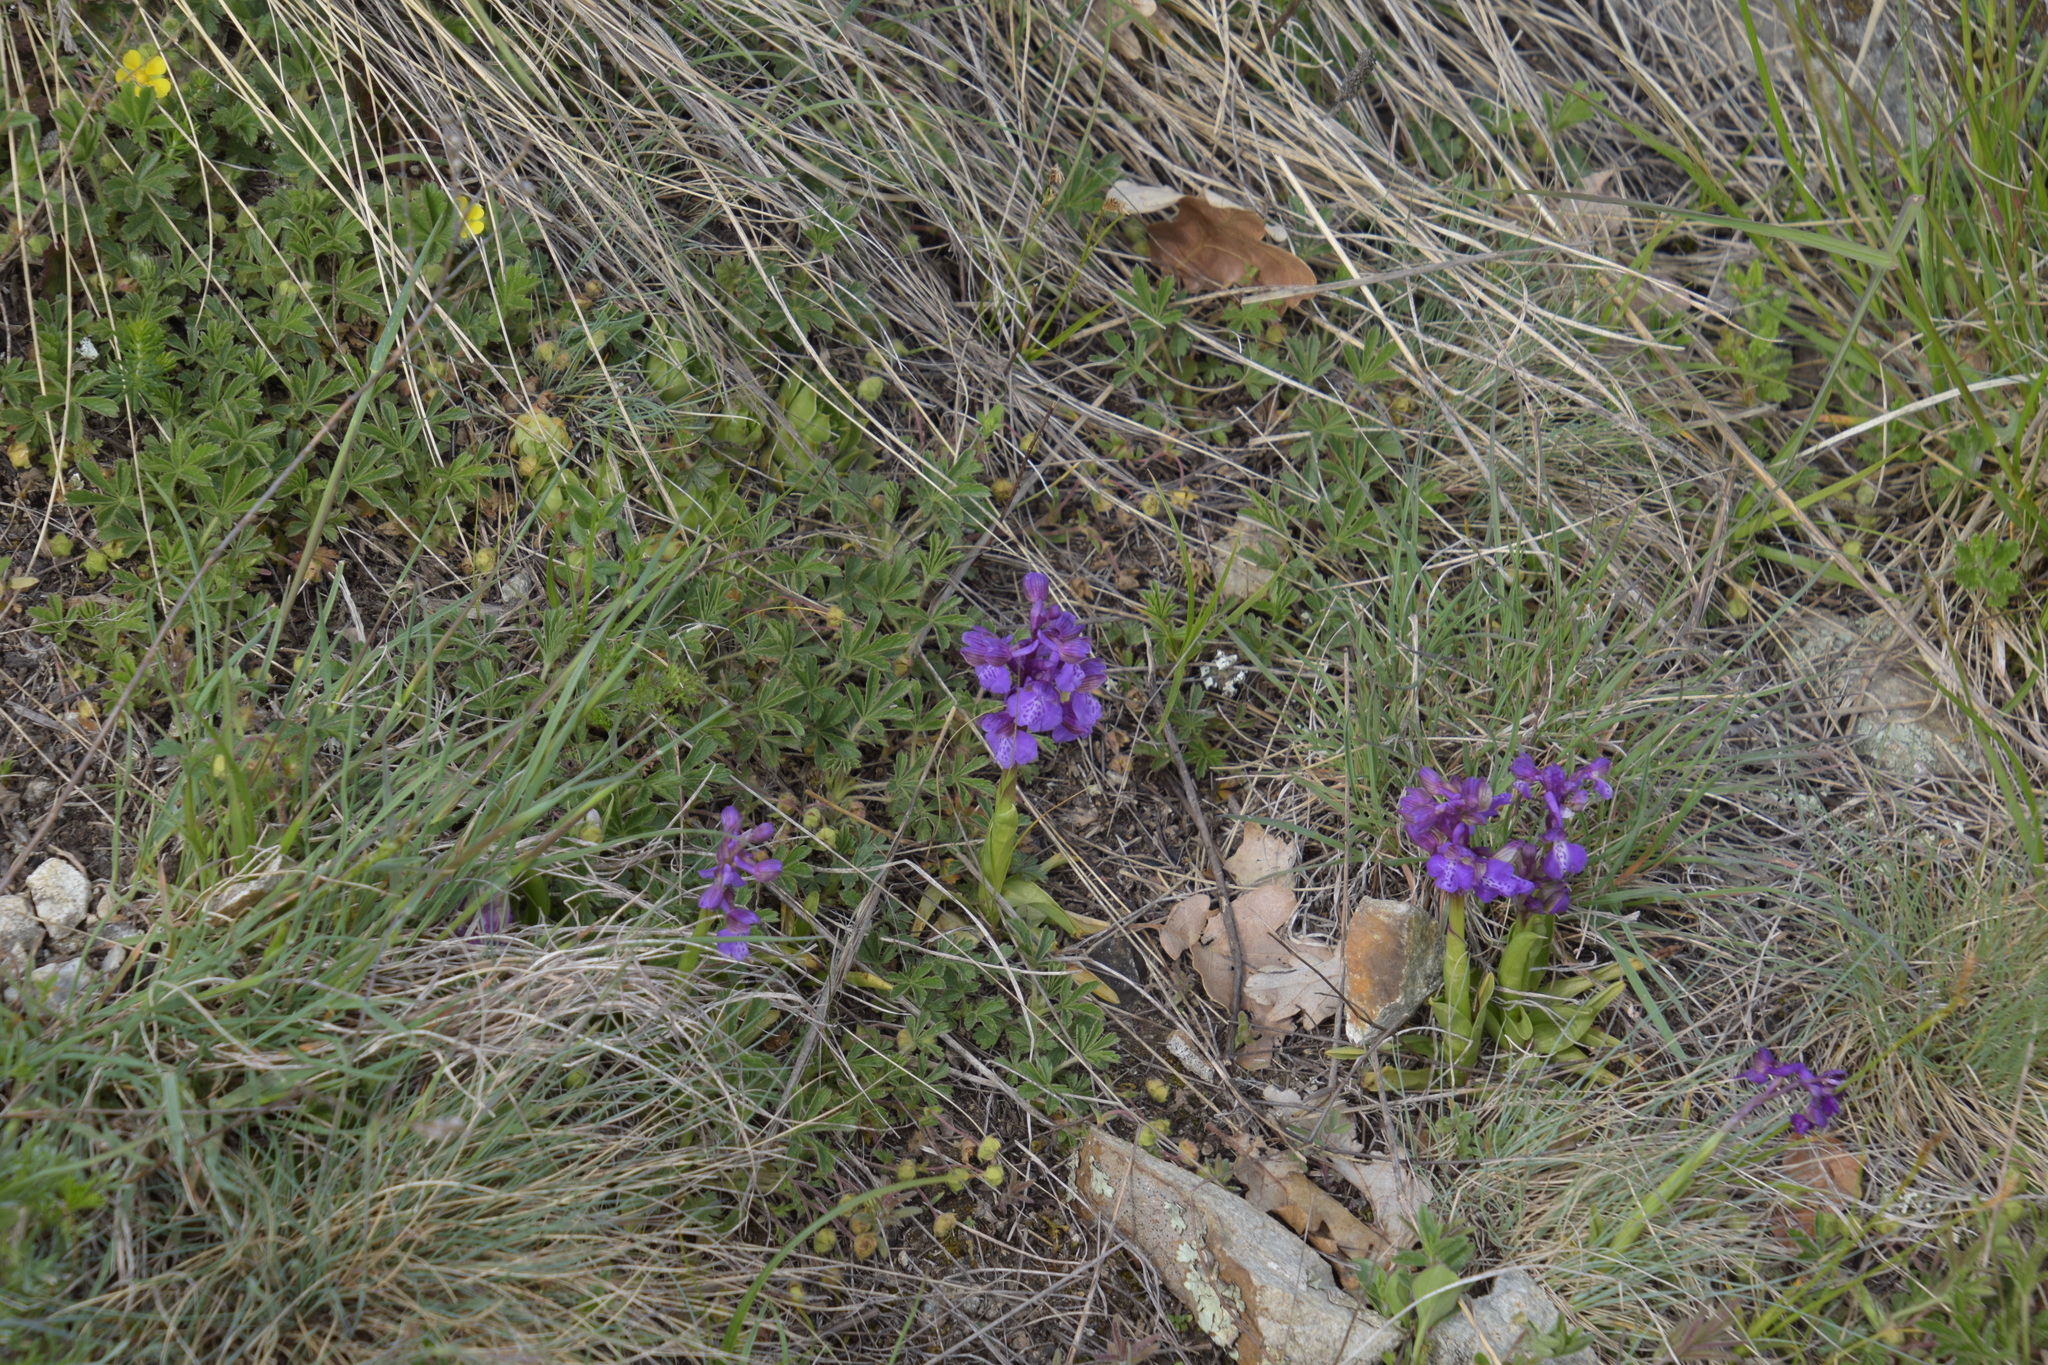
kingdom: Plantae
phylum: Tracheophyta
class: Liliopsida
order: Asparagales
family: Orchidaceae
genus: Anacamptis
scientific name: Anacamptis morio
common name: Green-winged orchid
